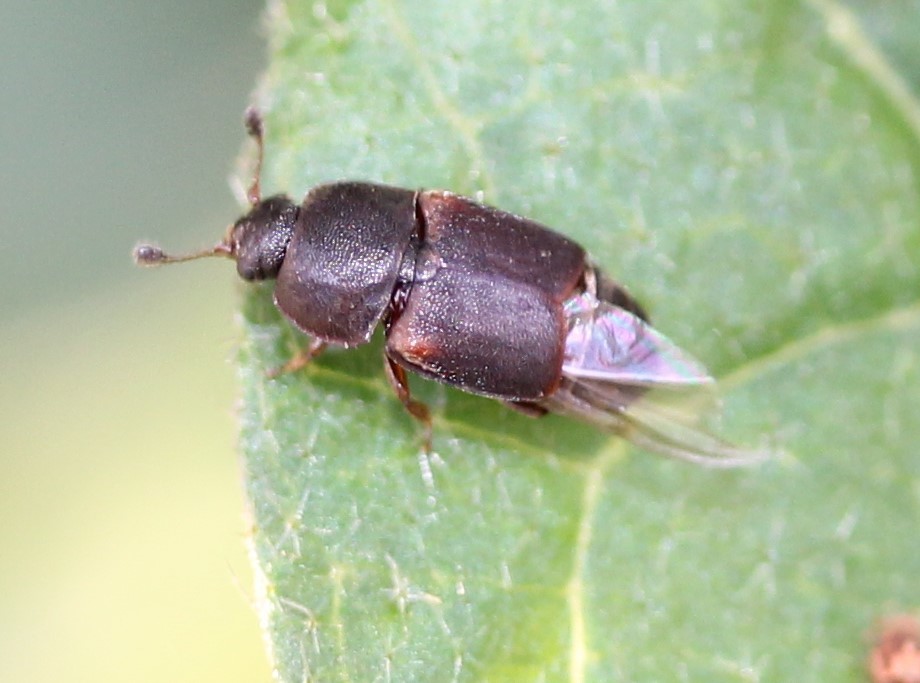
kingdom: Animalia
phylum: Arthropoda
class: Insecta
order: Coleoptera
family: Nitidulidae
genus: Carpophilus
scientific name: Carpophilus
